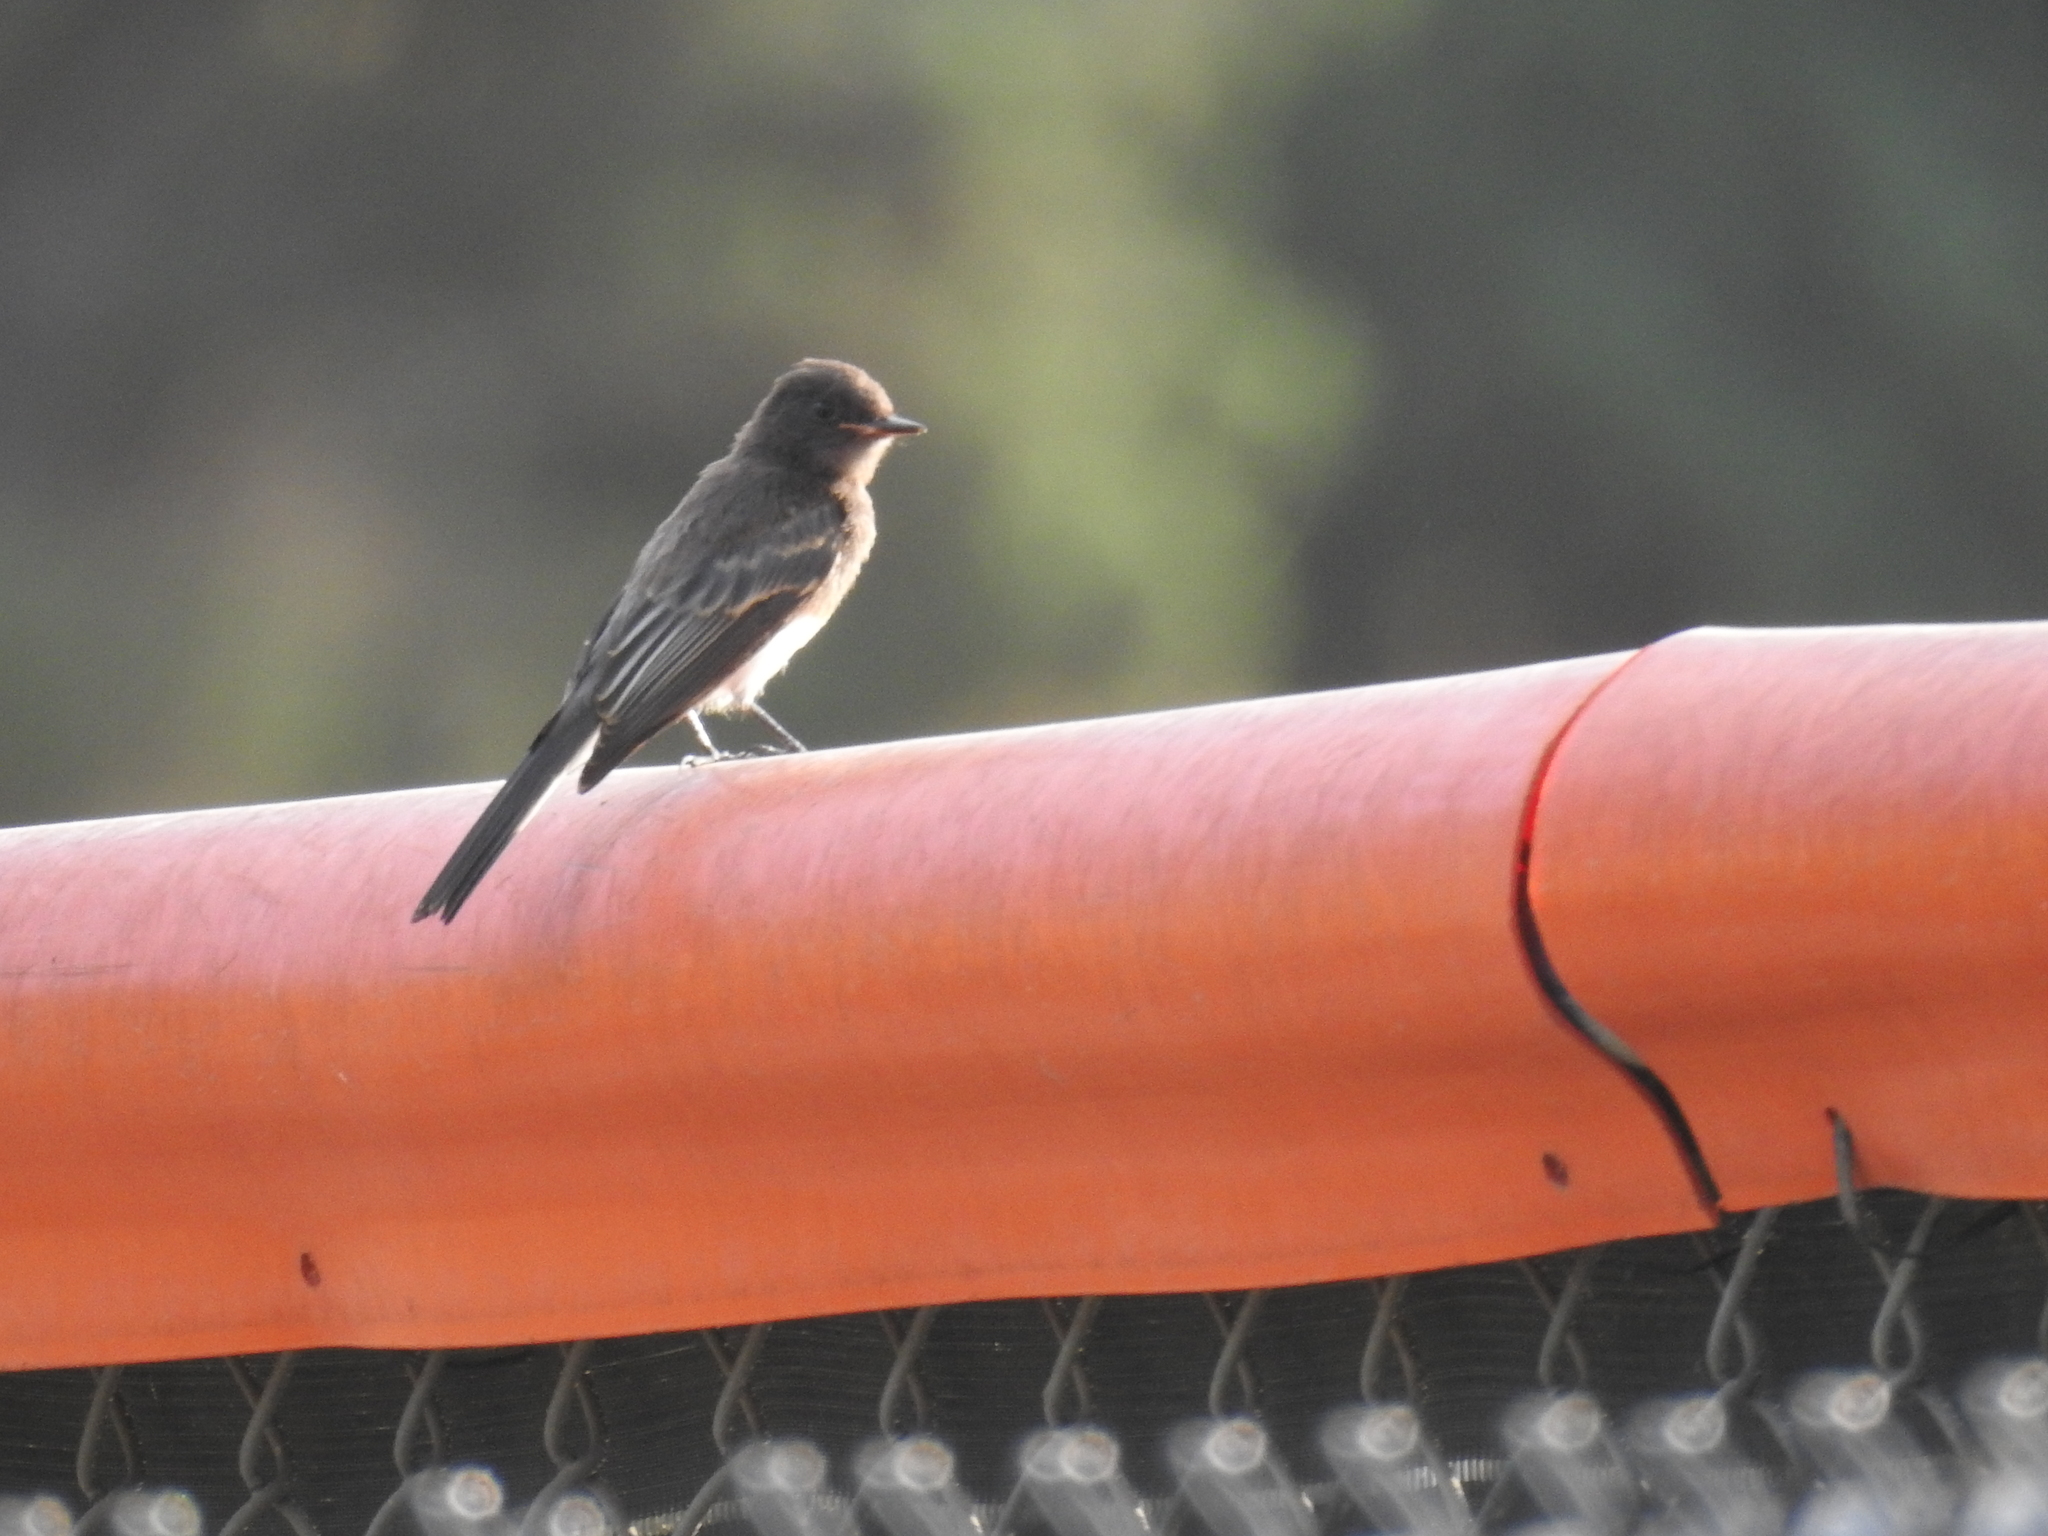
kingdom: Animalia
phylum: Chordata
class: Aves
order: Passeriformes
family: Tyrannidae
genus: Sayornis
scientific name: Sayornis nigricans
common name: Black phoebe
